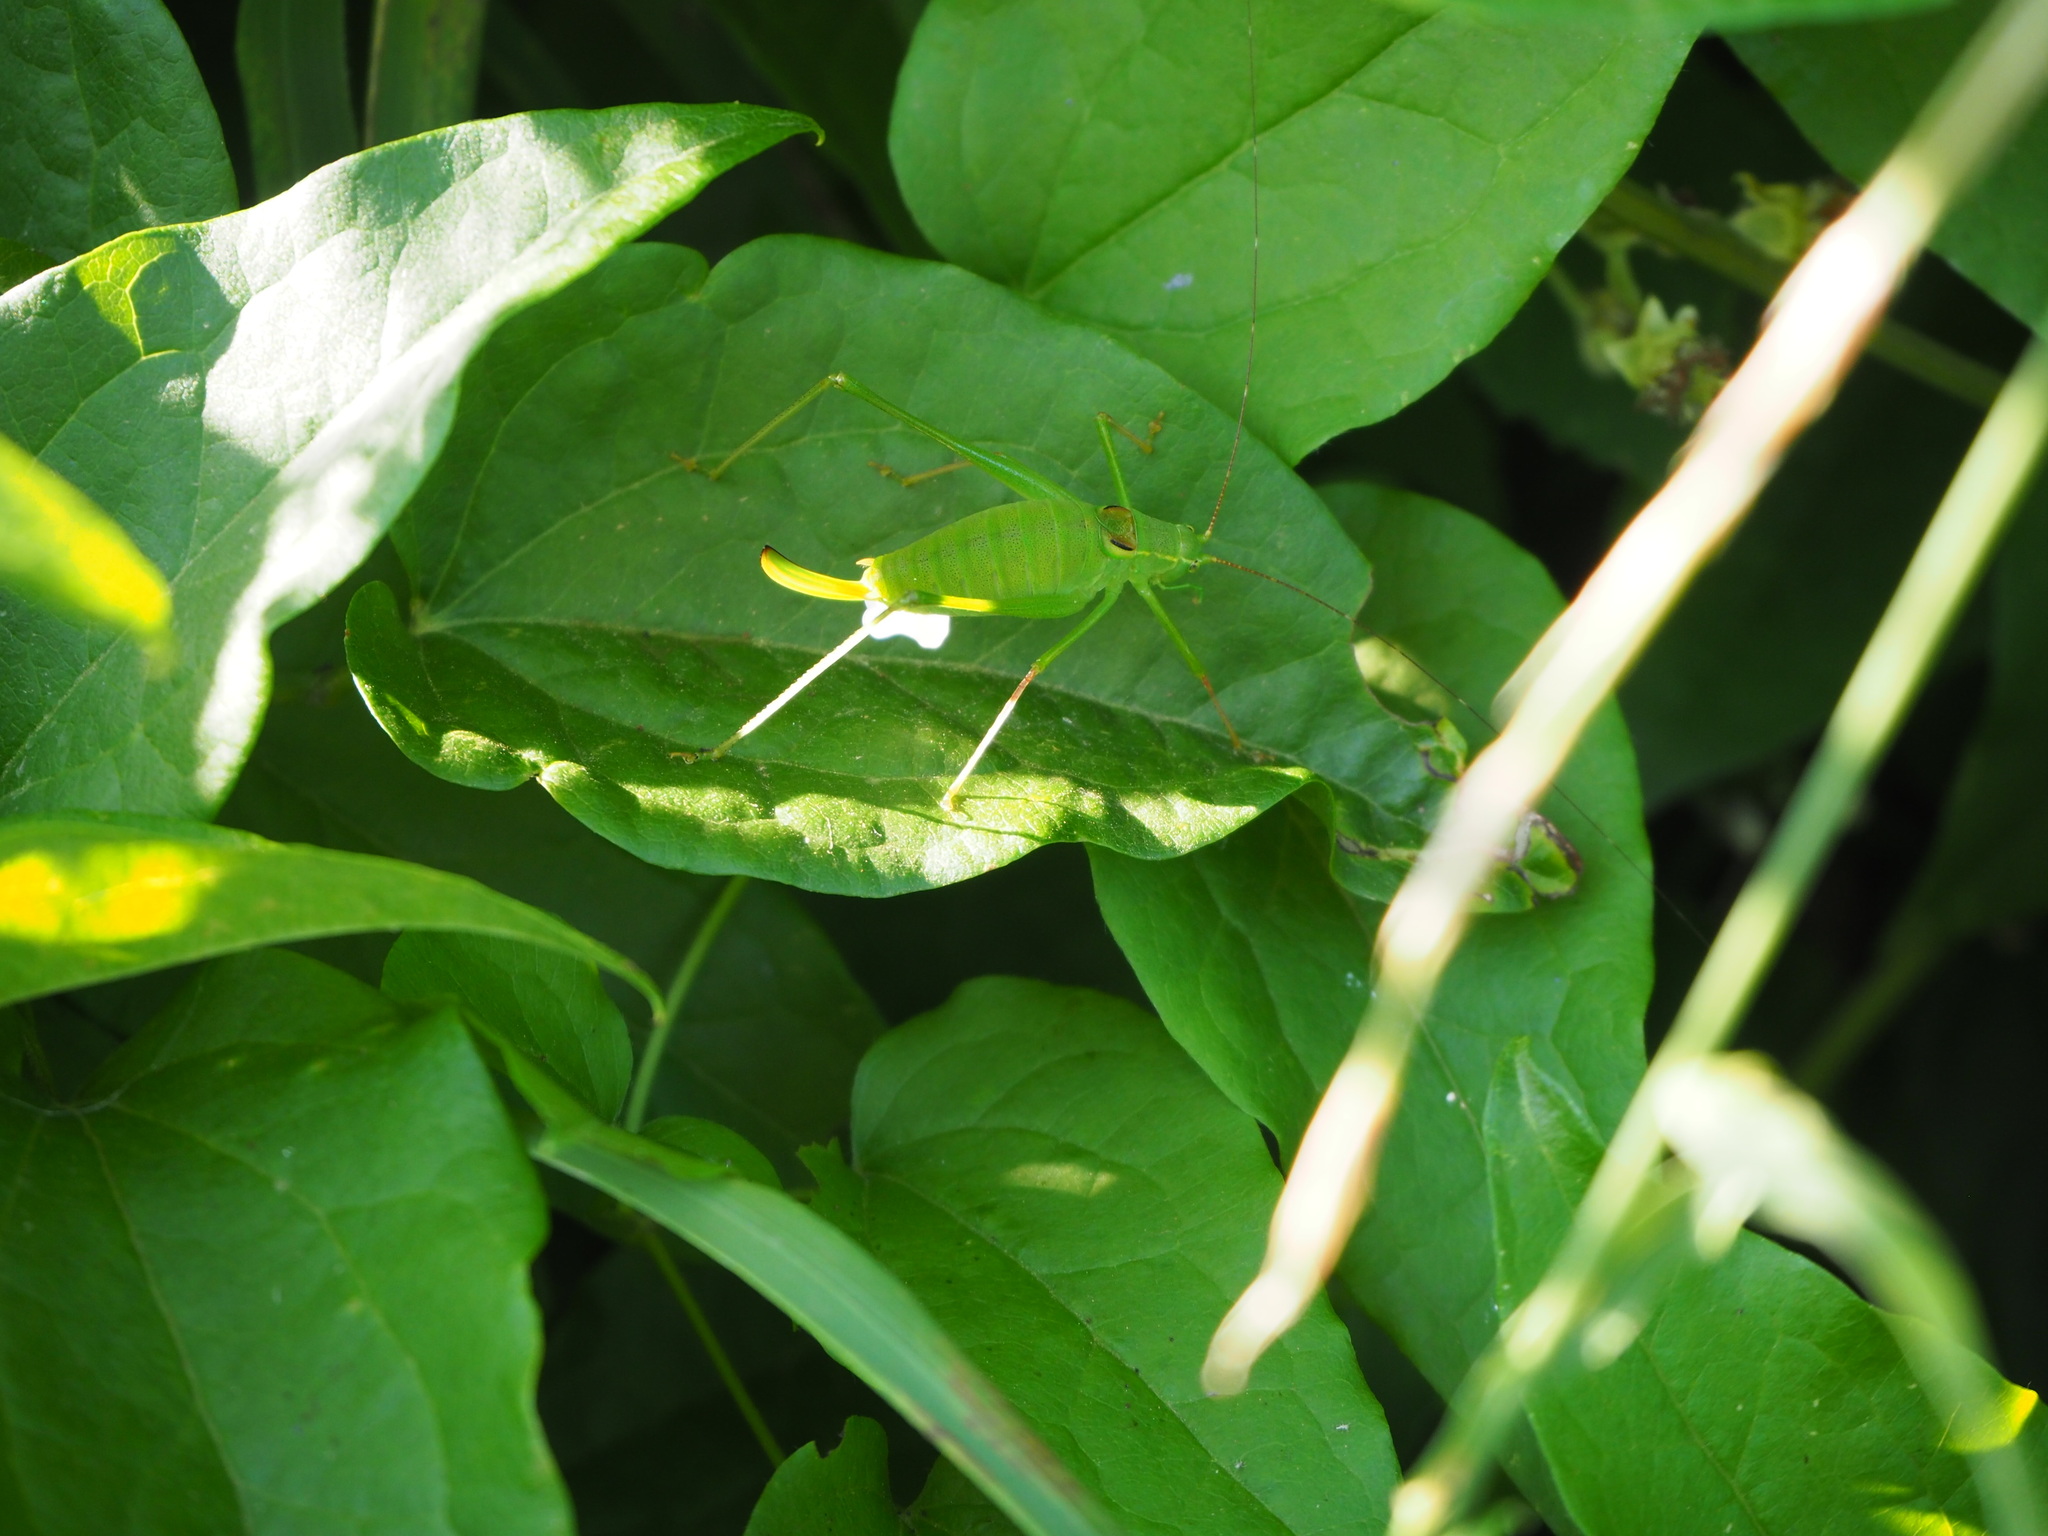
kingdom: Animalia
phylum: Arthropoda
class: Insecta
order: Orthoptera
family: Tettigoniidae
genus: Leptophyes
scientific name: Leptophyes laticauda
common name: Long-tailed speckled bush-cricket
